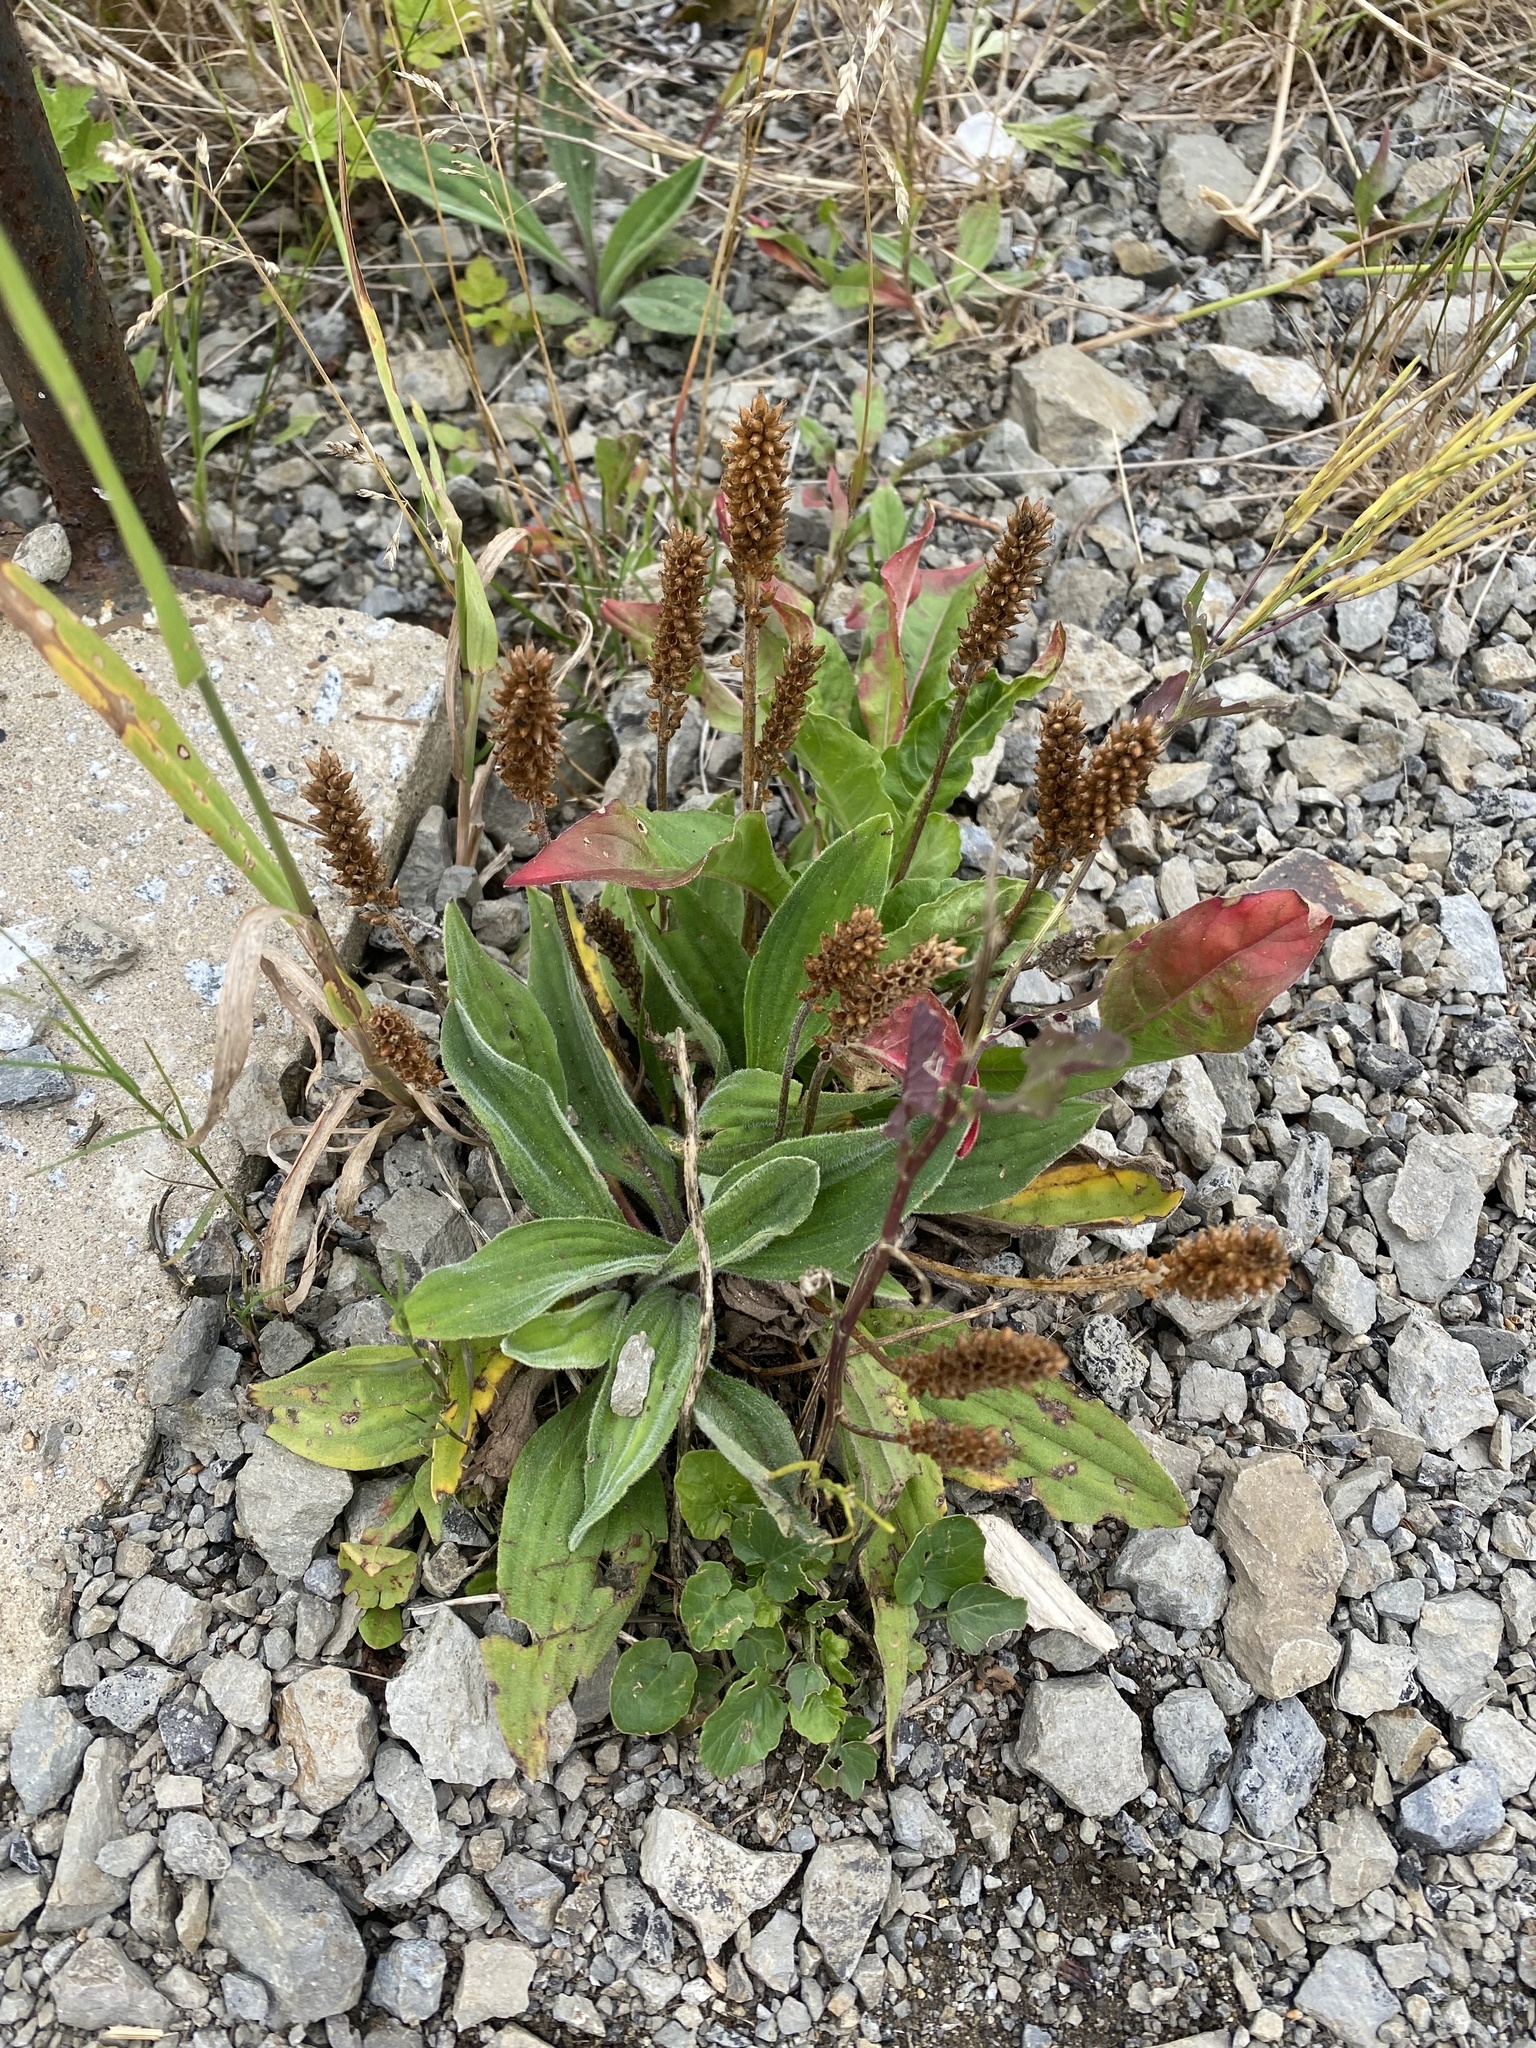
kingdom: Plantae
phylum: Tracheophyta
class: Magnoliopsida
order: Lamiales
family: Plantaginaceae
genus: Plantago
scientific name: Plantago camtschatica
